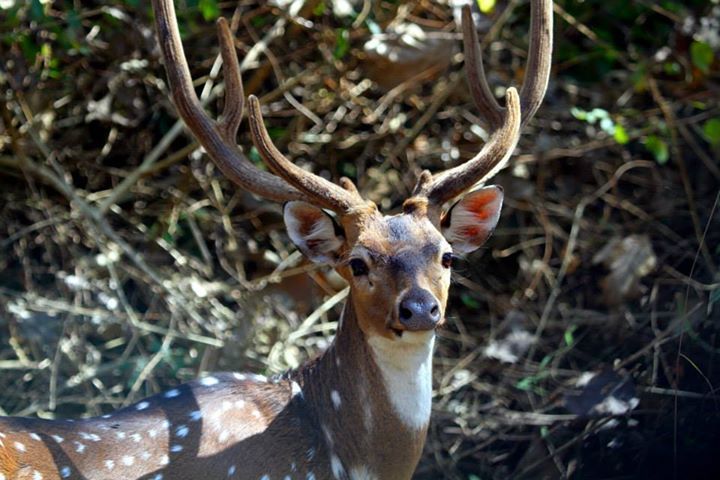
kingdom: Animalia
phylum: Chordata
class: Mammalia
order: Artiodactyla
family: Cervidae
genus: Axis
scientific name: Axis axis
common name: Chital
